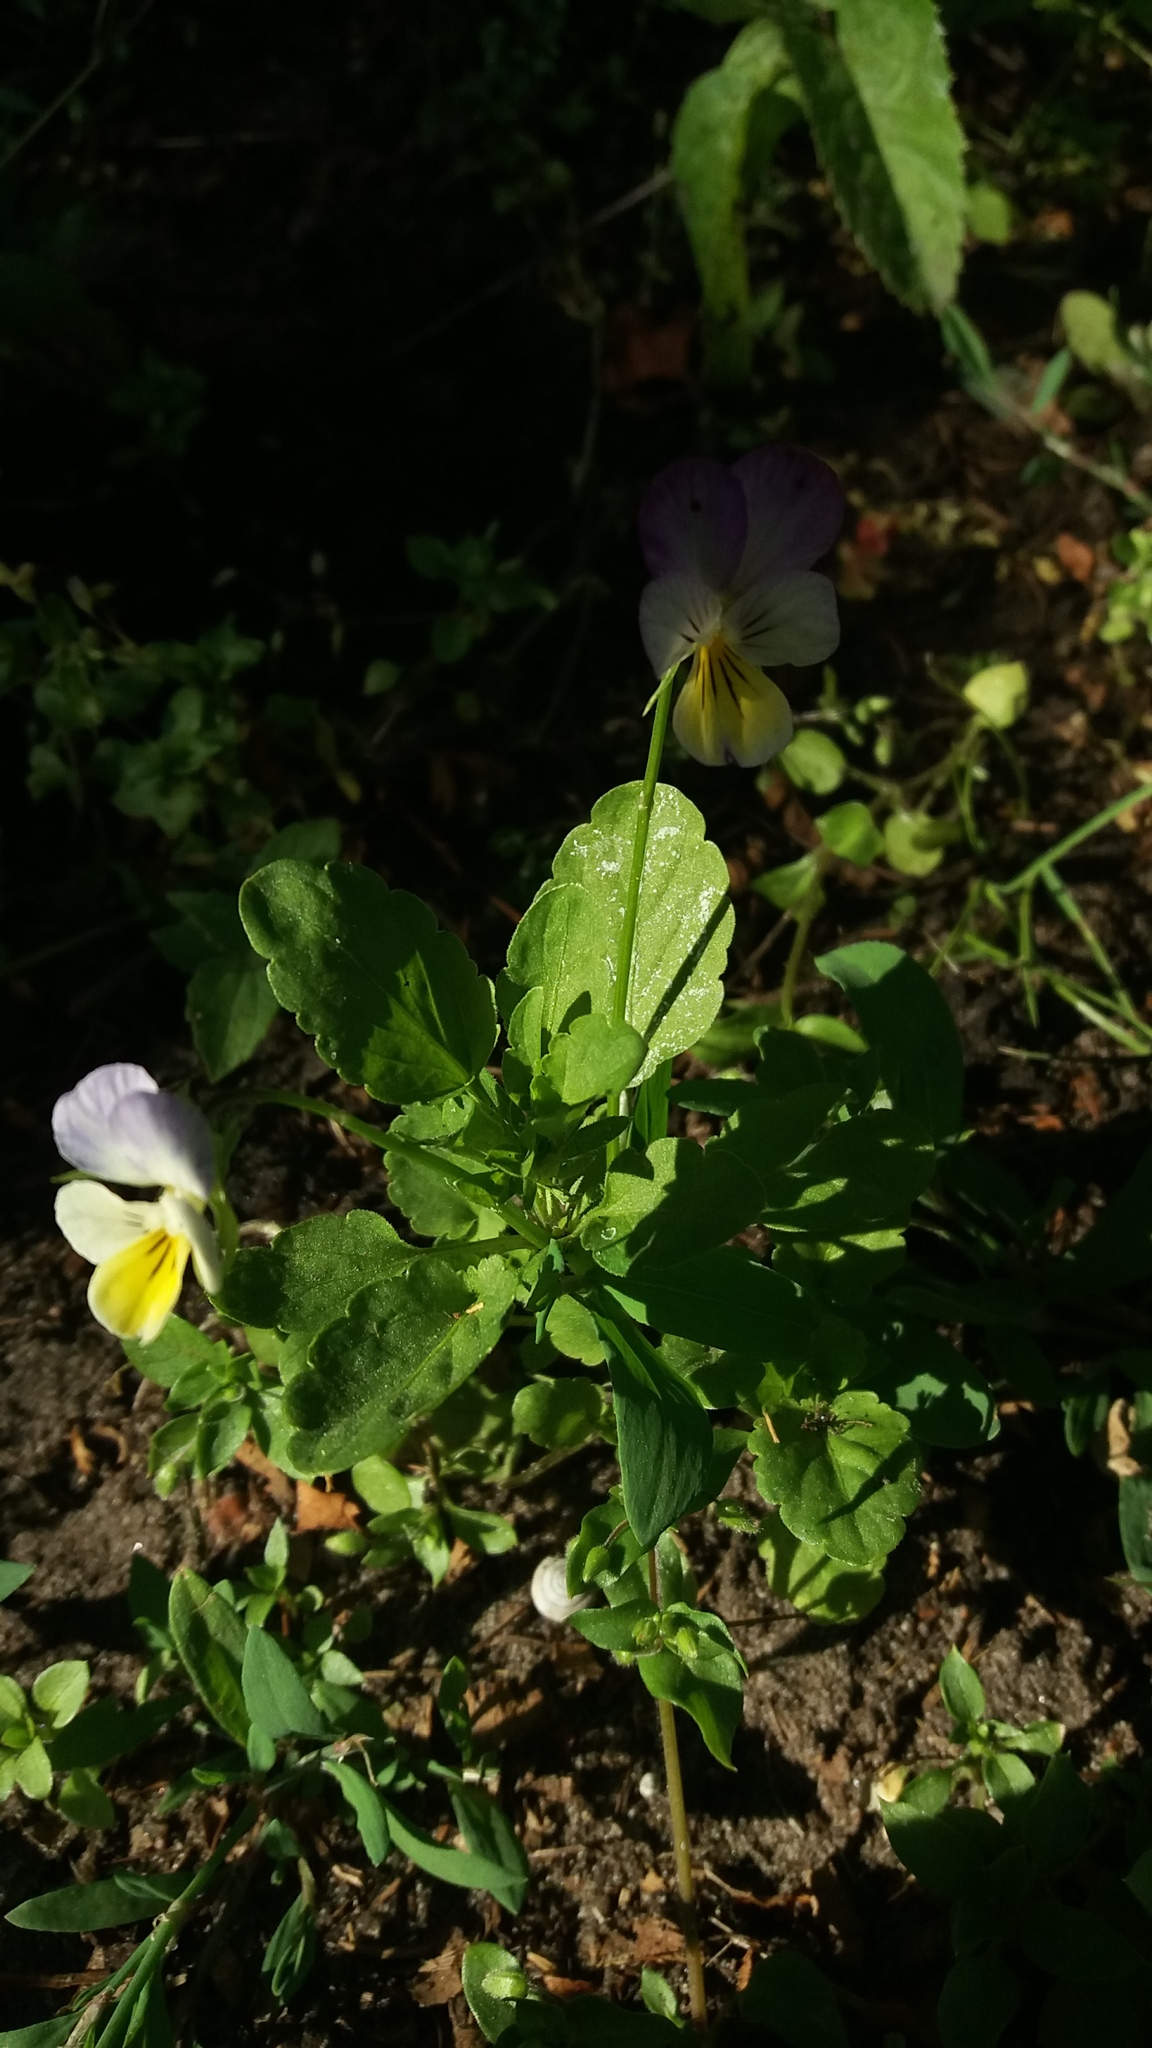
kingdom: Plantae
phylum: Tracheophyta
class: Magnoliopsida
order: Malpighiales
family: Violaceae
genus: Viola
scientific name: Viola tricolor
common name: Pansy
